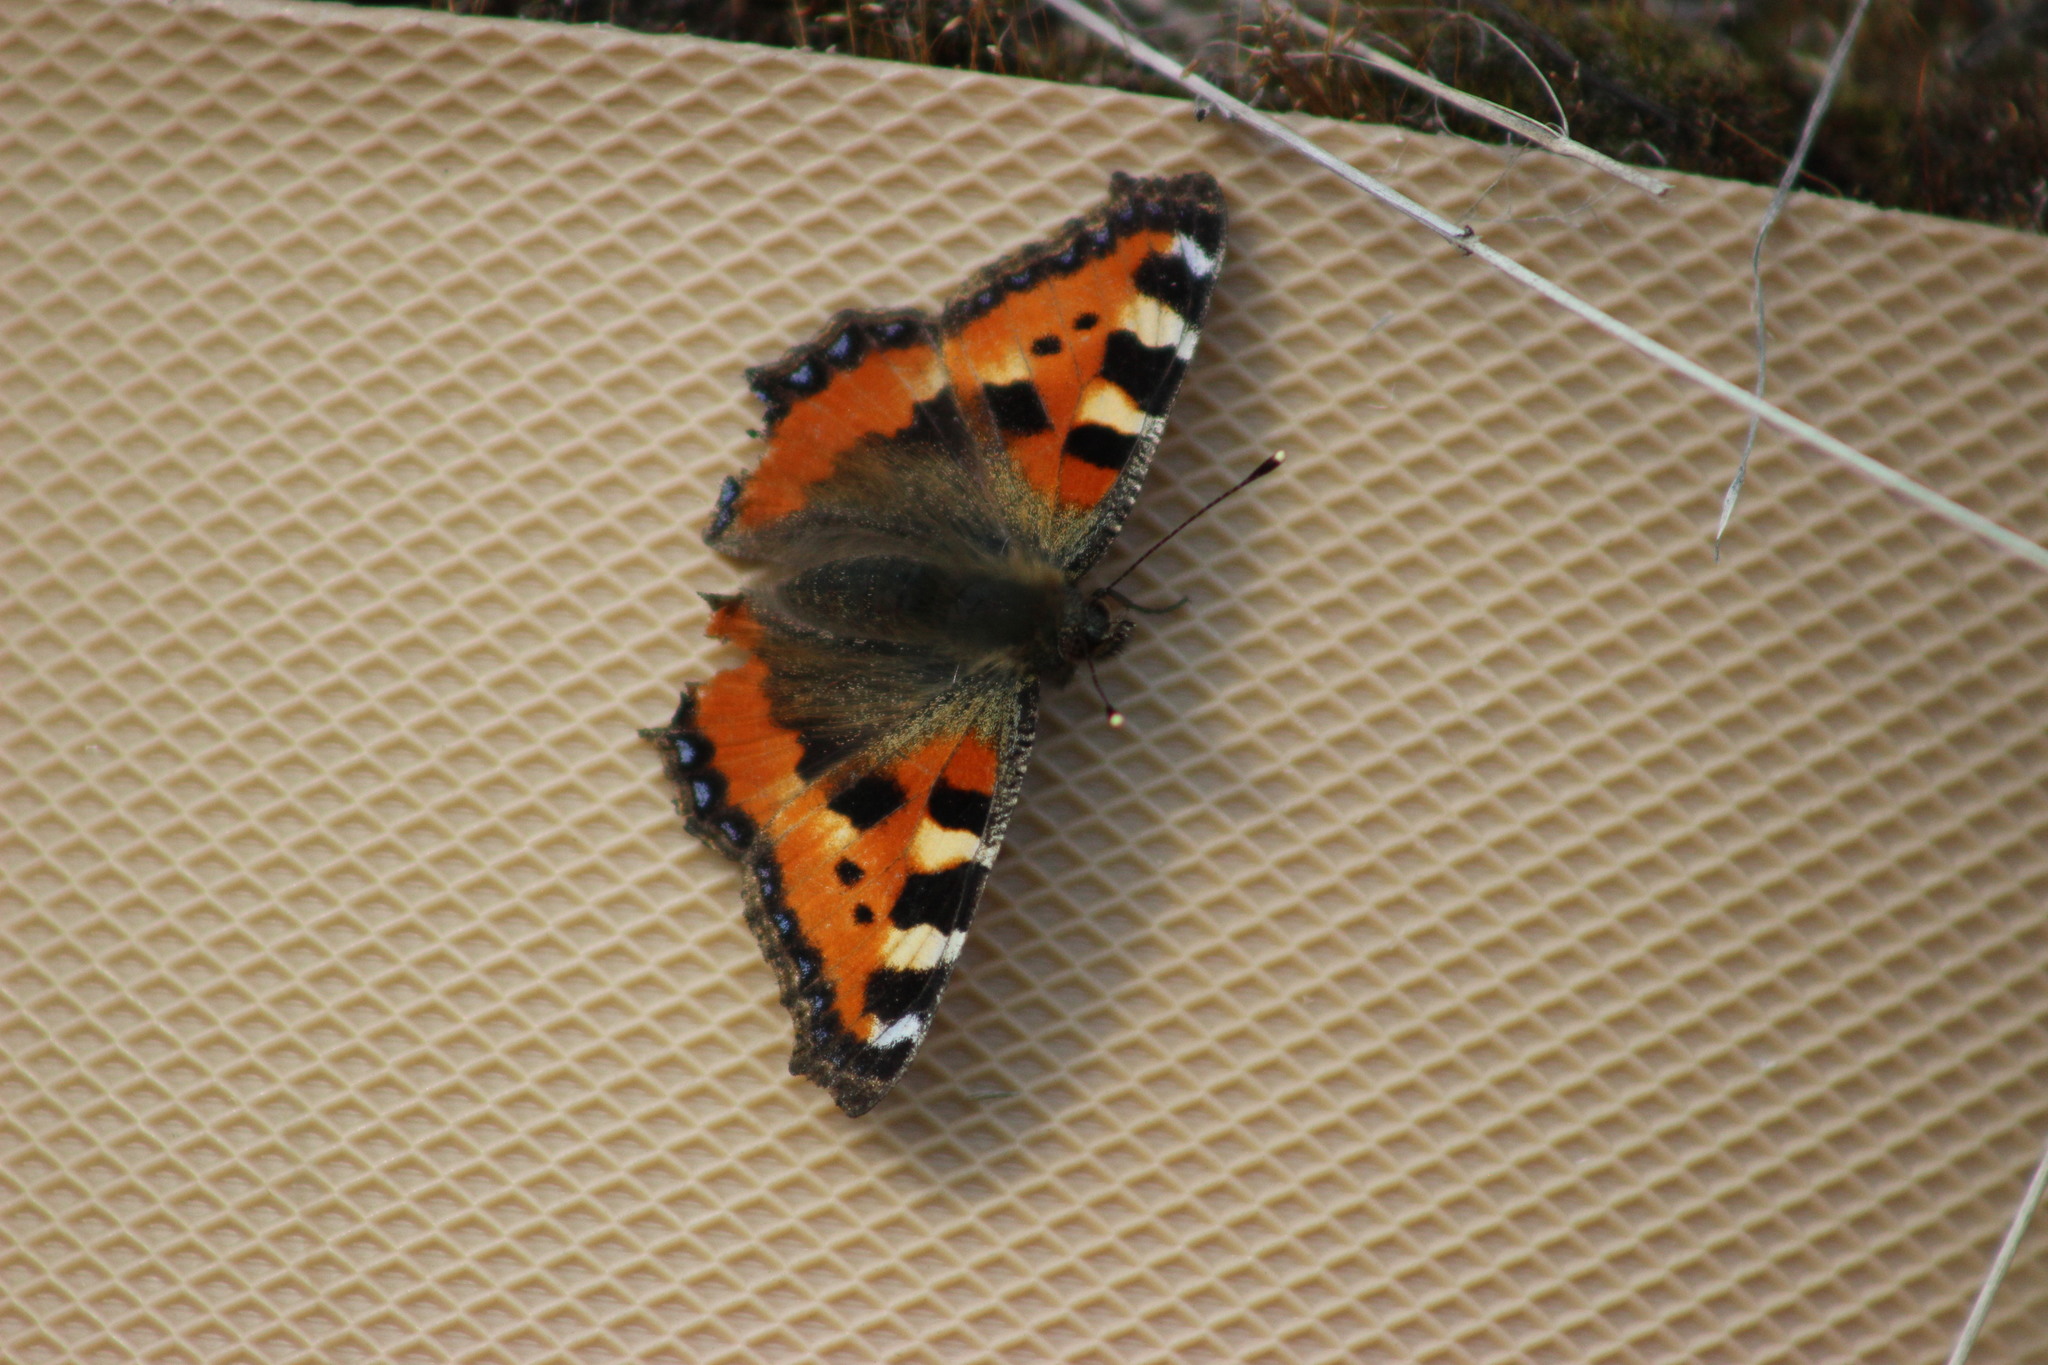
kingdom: Animalia
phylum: Arthropoda
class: Insecta
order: Lepidoptera
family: Nymphalidae
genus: Aglais
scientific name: Aglais urticae
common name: Small tortoiseshell
